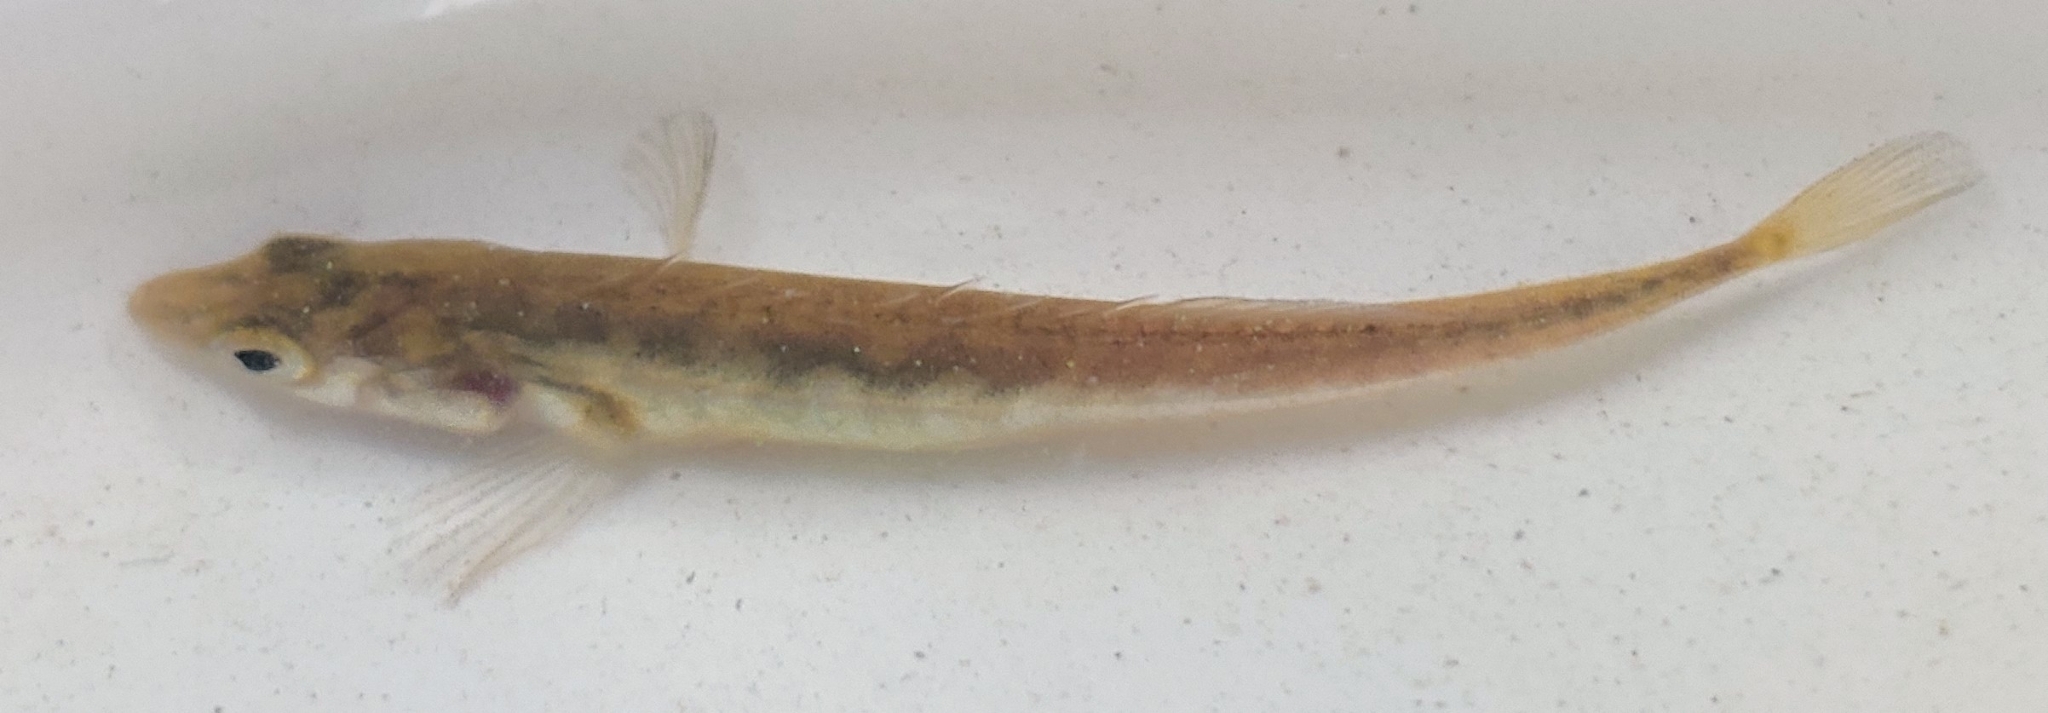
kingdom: Animalia
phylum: Chordata
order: Gasterosteiformes
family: Gasterosteidae
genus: Pungitius
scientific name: Pungitius pungitius
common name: Nine-spined stickleback
